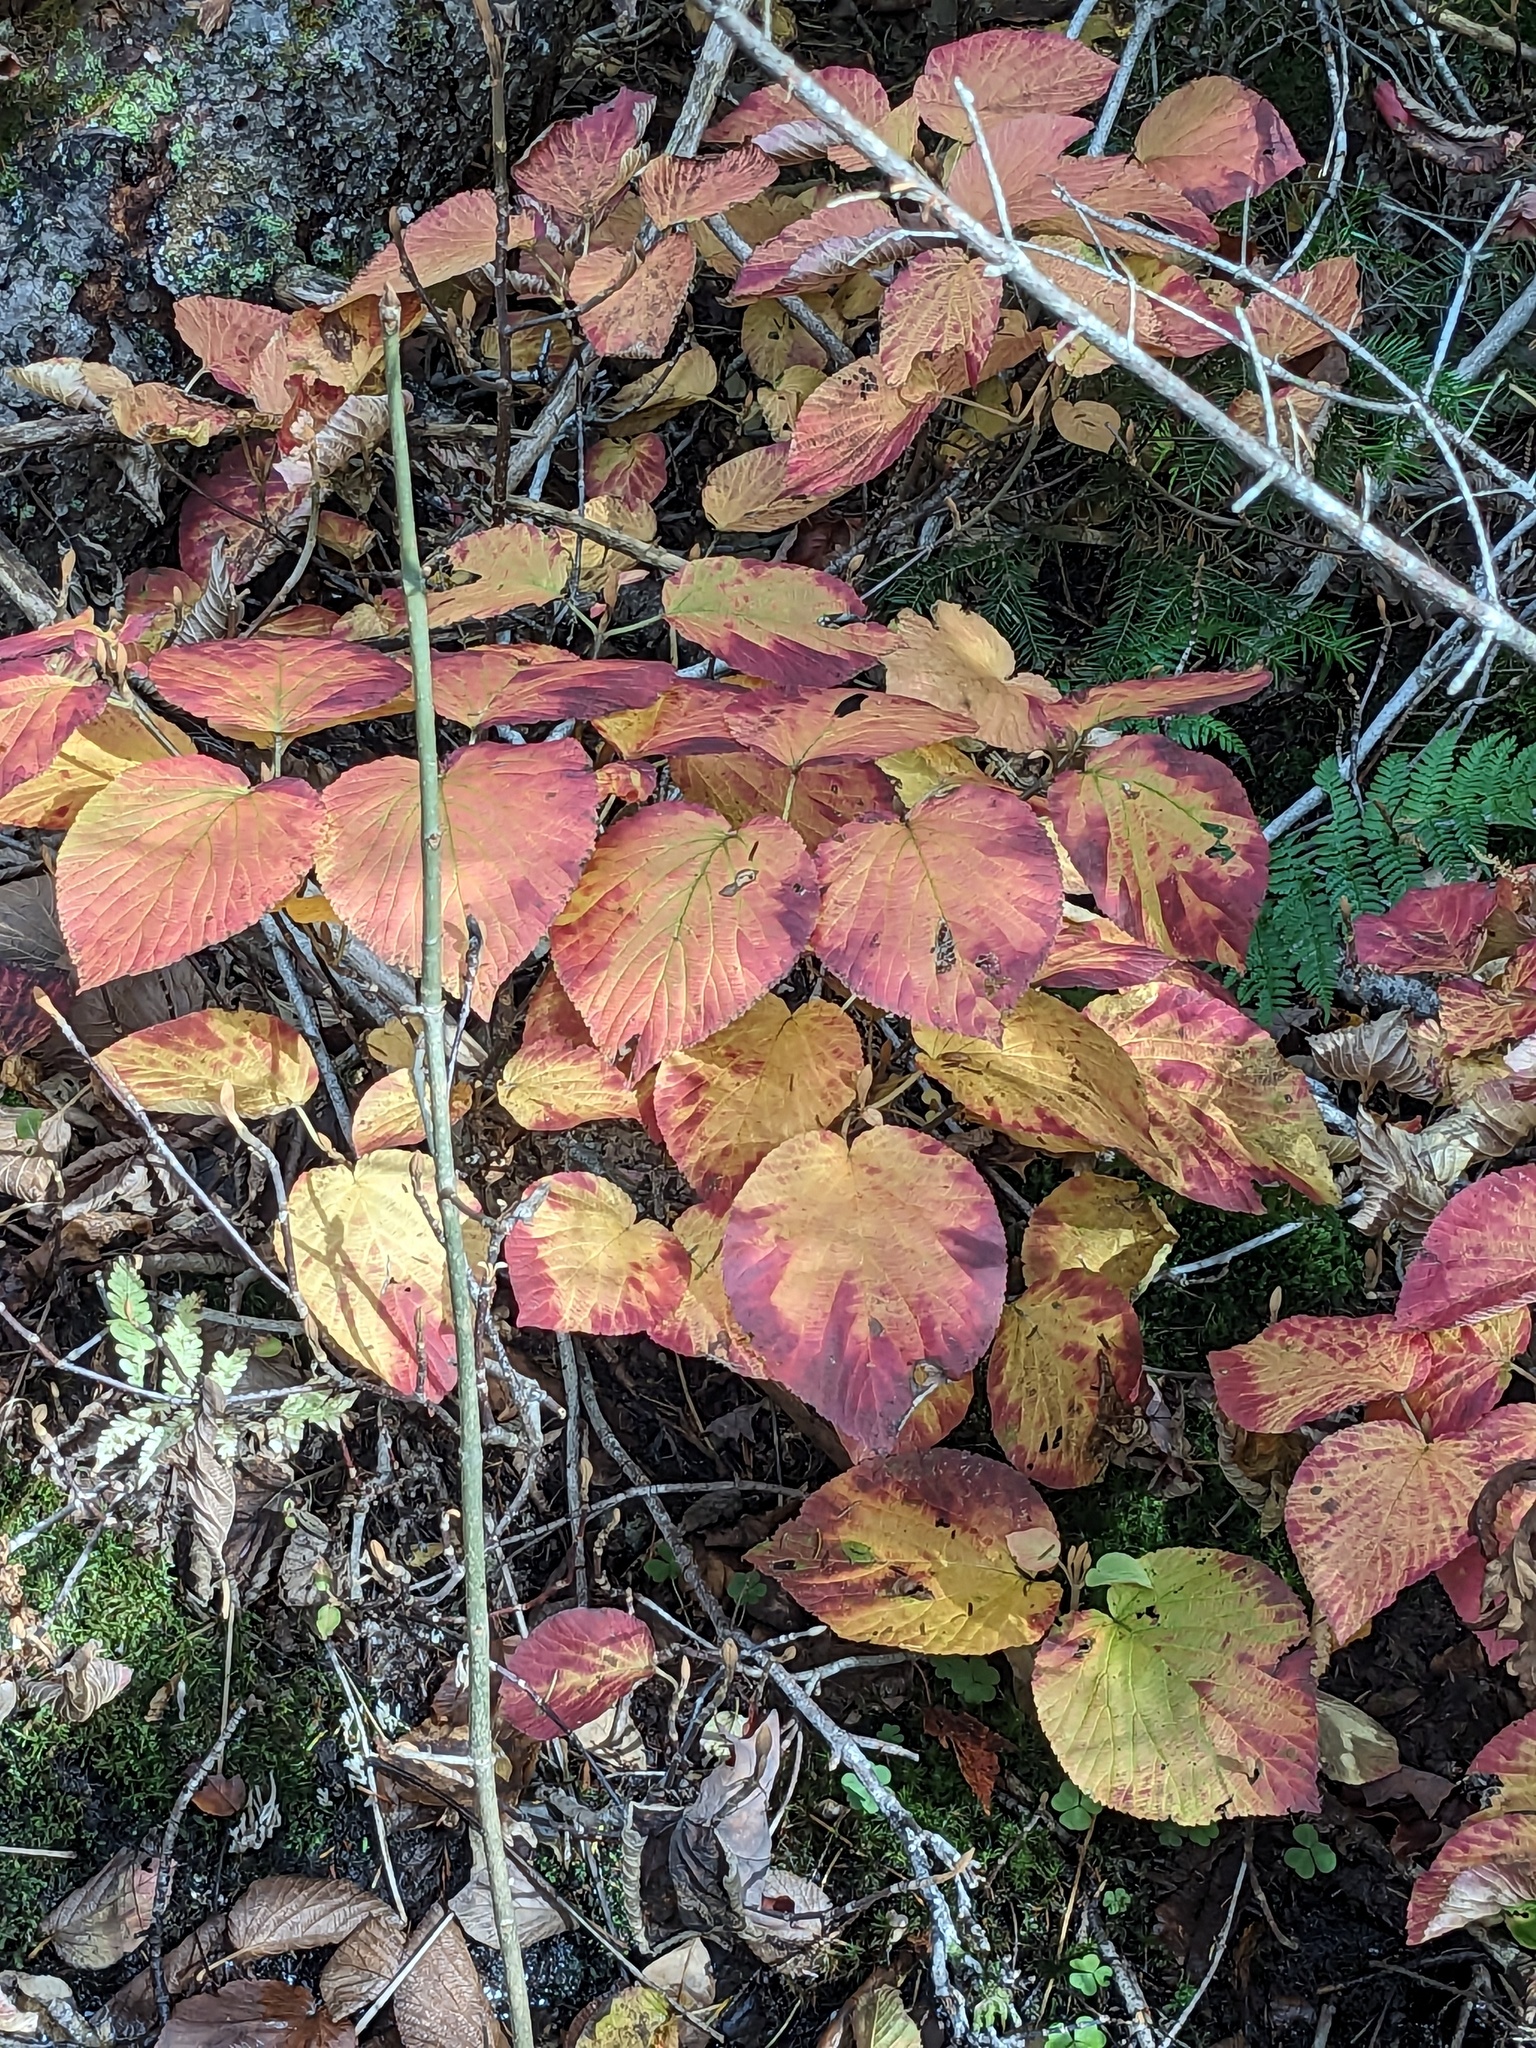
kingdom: Plantae
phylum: Tracheophyta
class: Magnoliopsida
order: Dipsacales
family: Viburnaceae
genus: Viburnum
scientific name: Viburnum lantanoides
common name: Hobblebush
